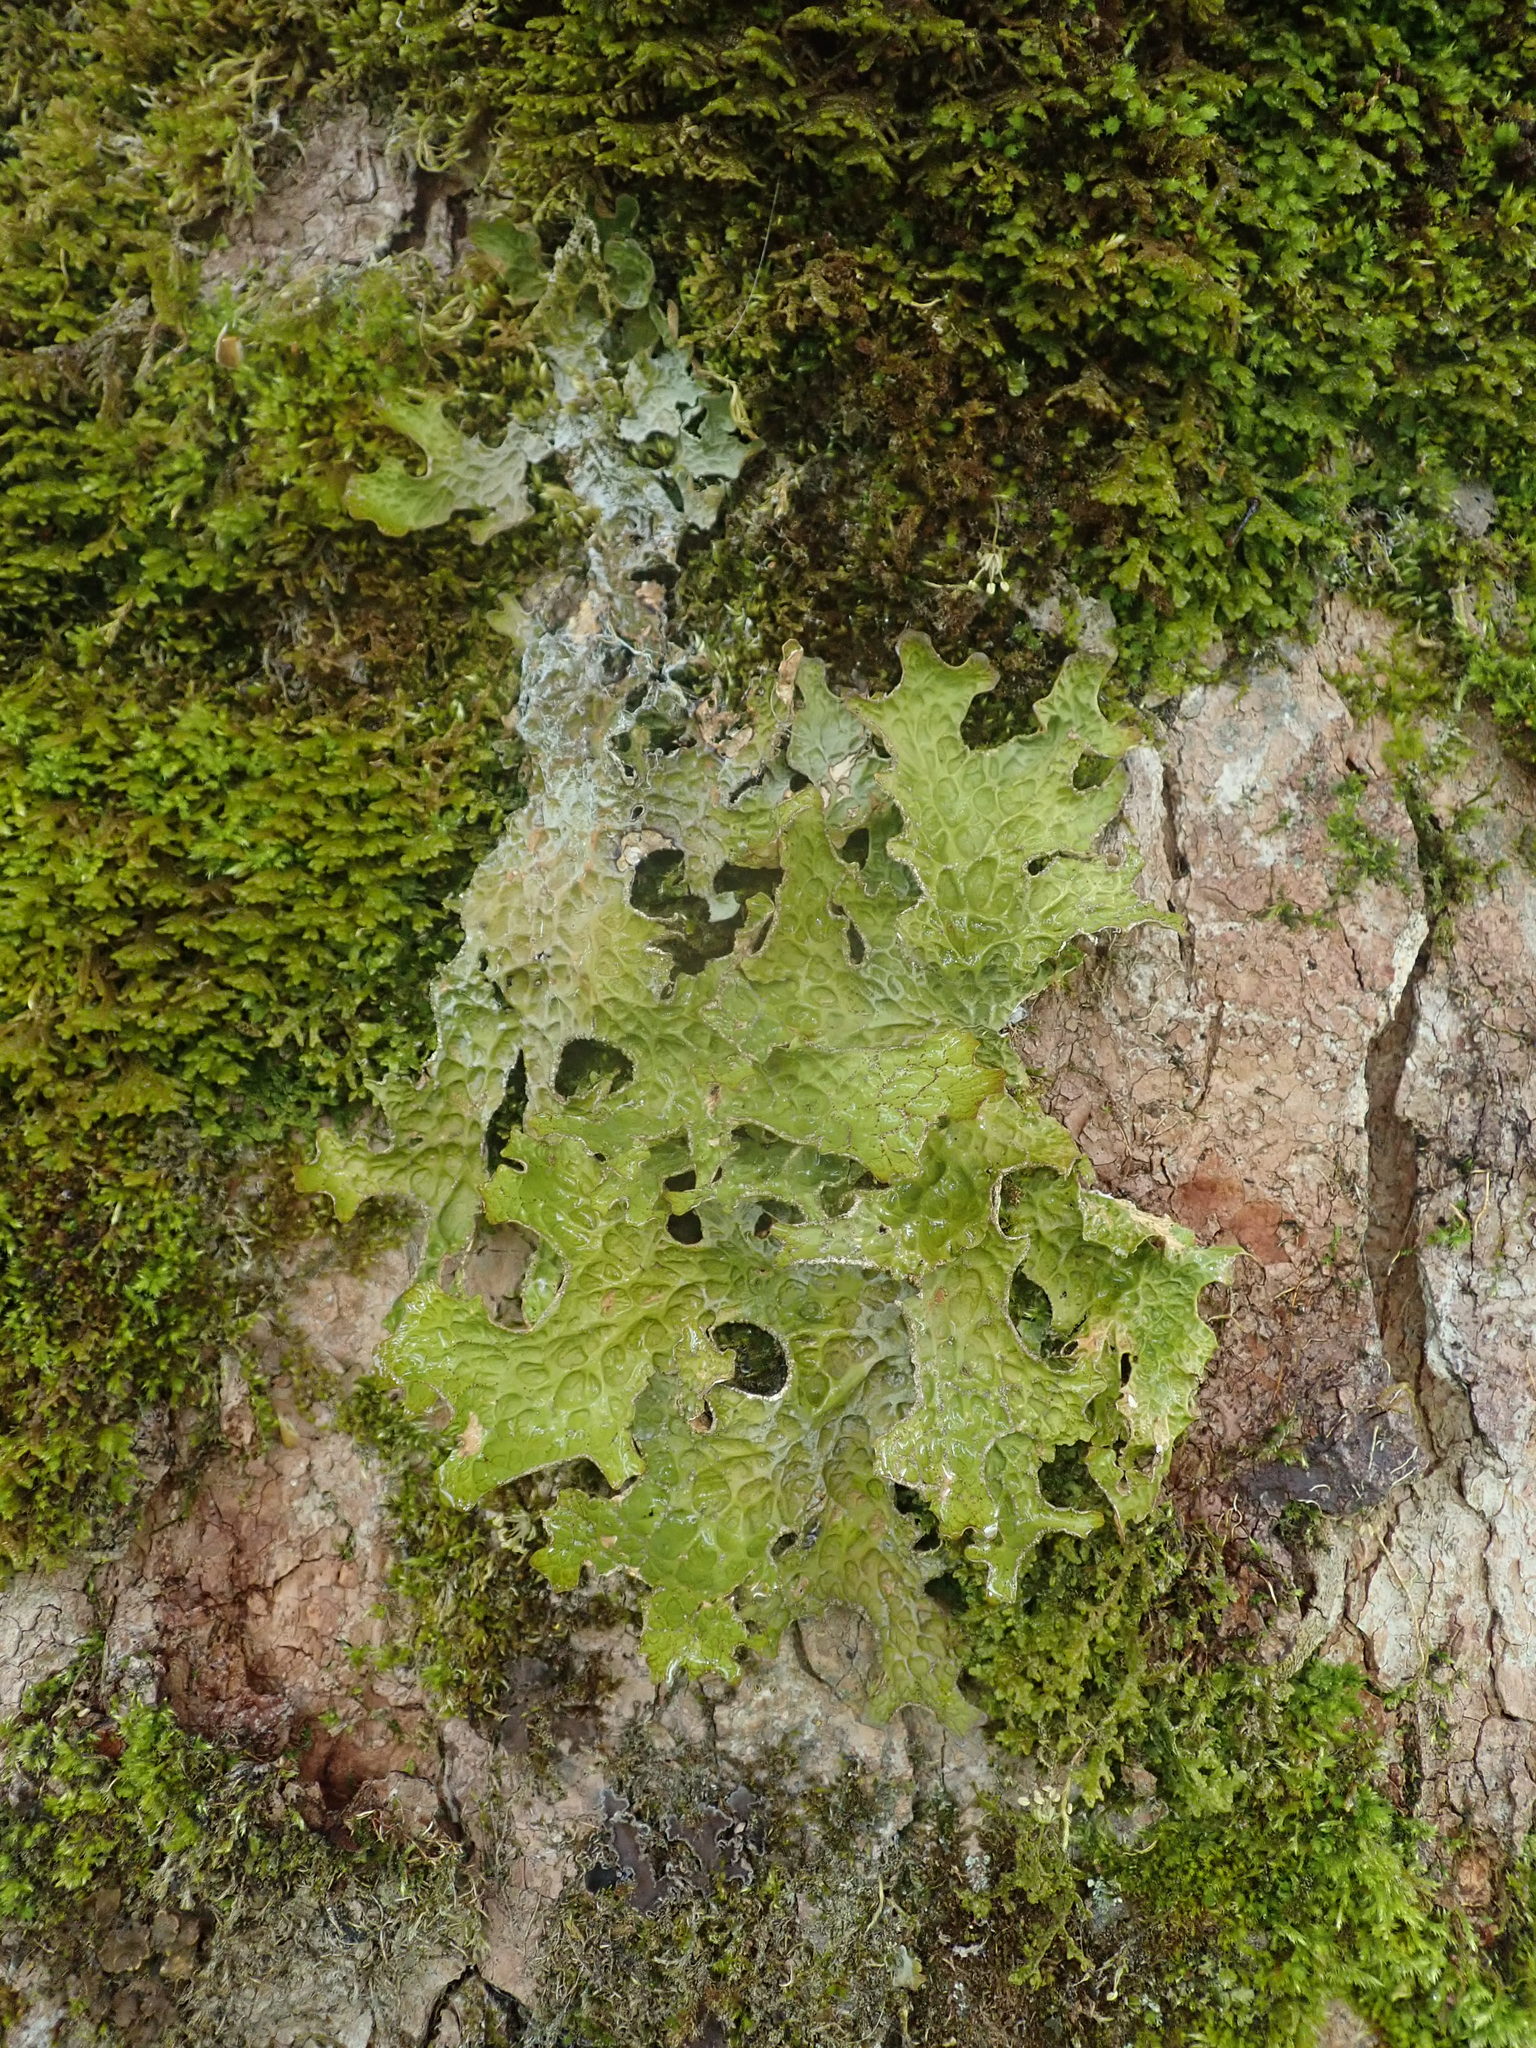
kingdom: Fungi
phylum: Ascomycota
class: Lecanoromycetes
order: Peltigerales
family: Lobariaceae
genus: Lobaria
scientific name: Lobaria pulmonaria
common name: Lungwort
